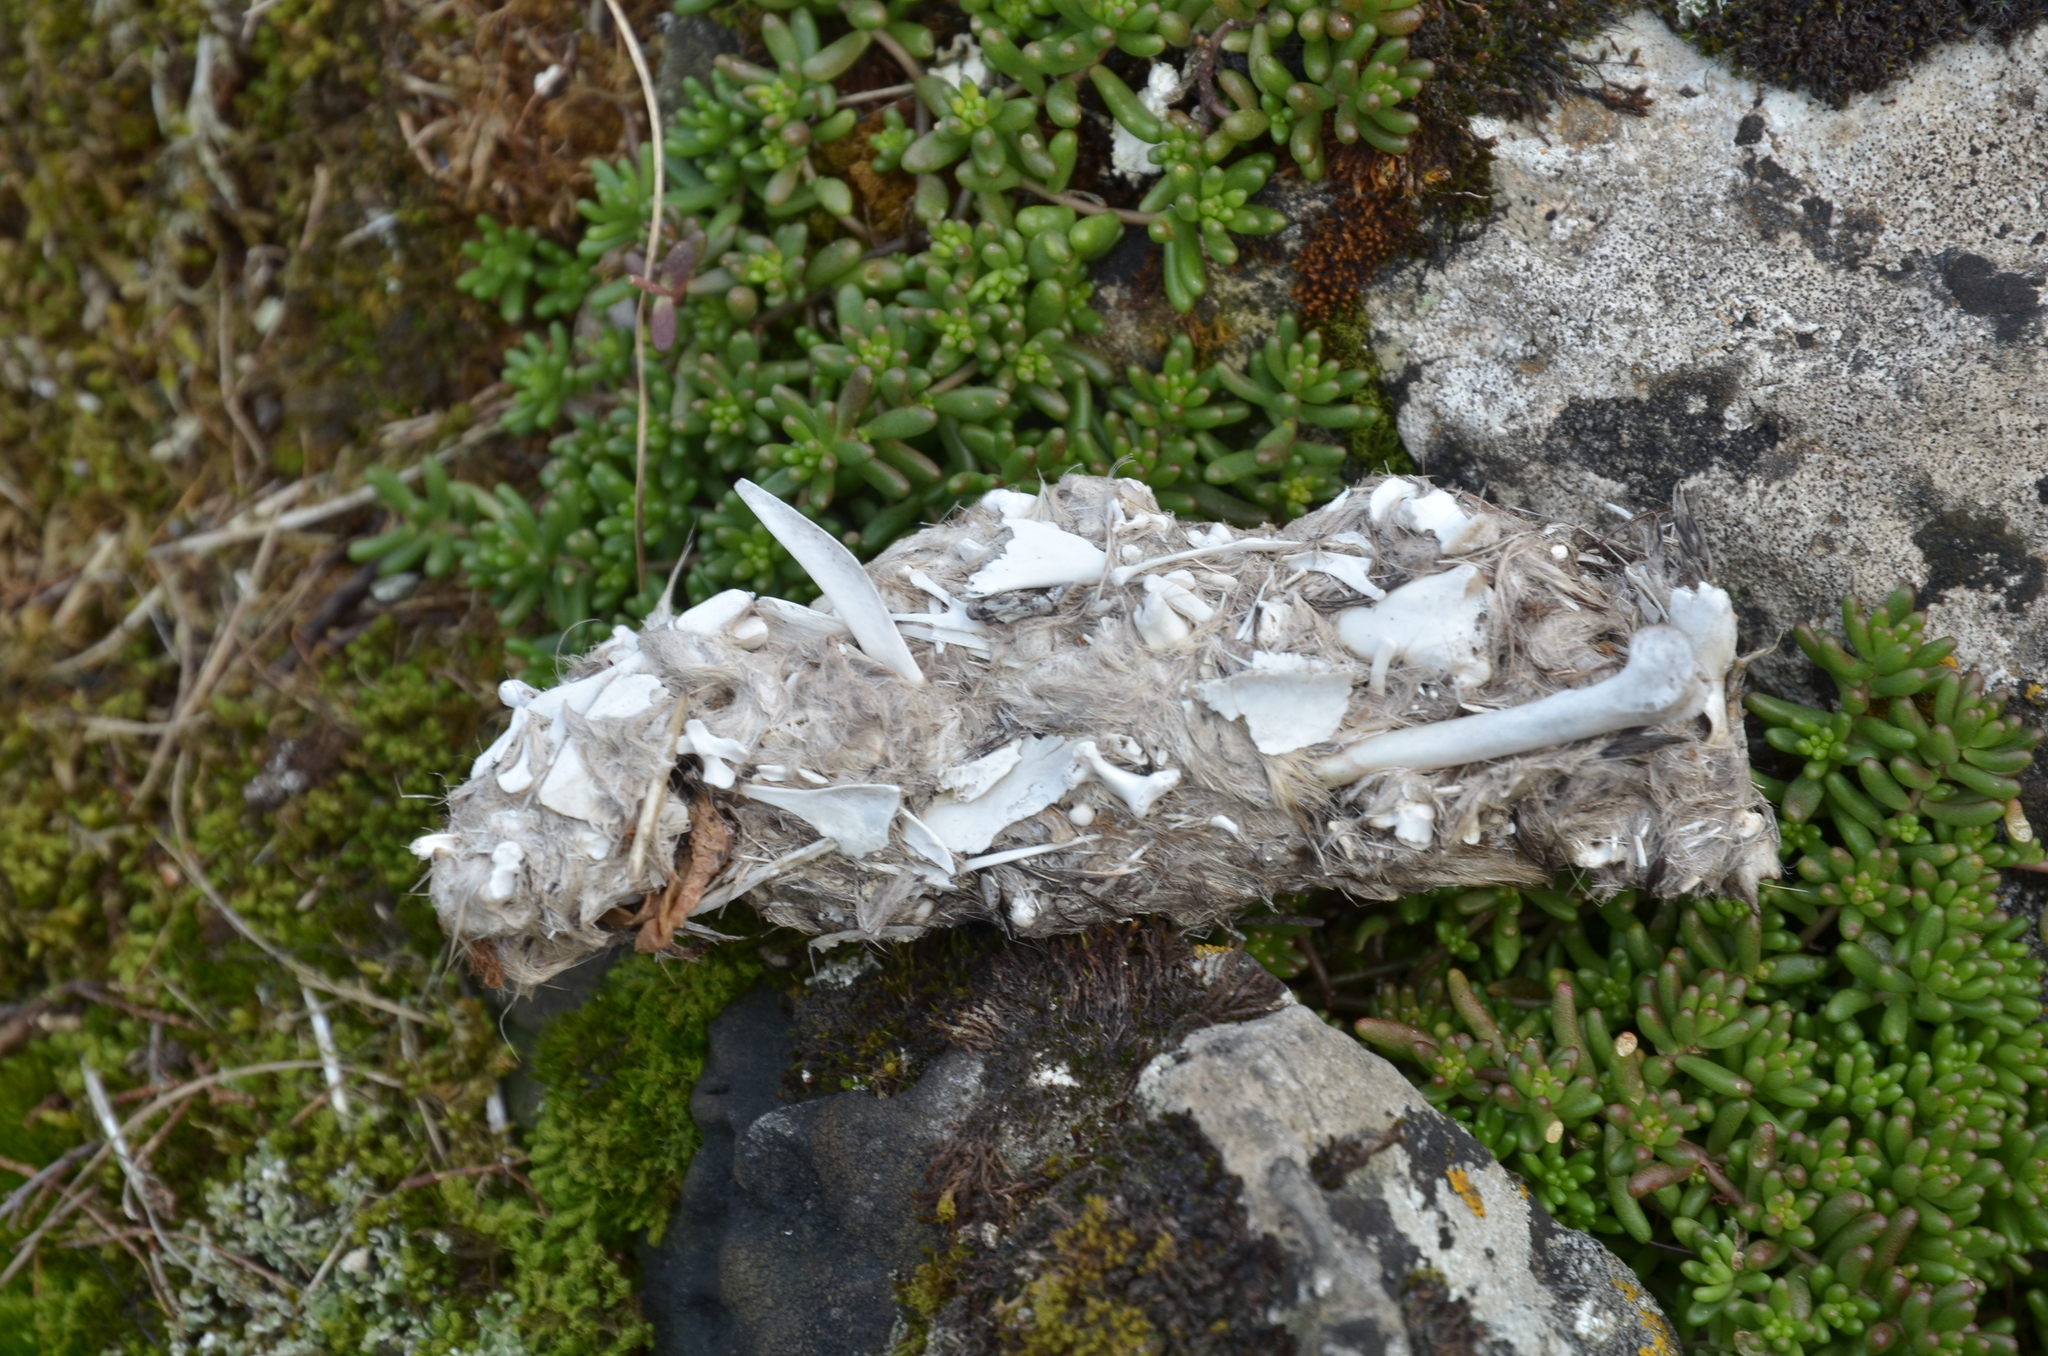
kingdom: Animalia
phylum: Chordata
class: Aves
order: Strigiformes
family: Strigidae
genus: Bubo
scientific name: Bubo bubo
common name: Eurasian eagle-owl
